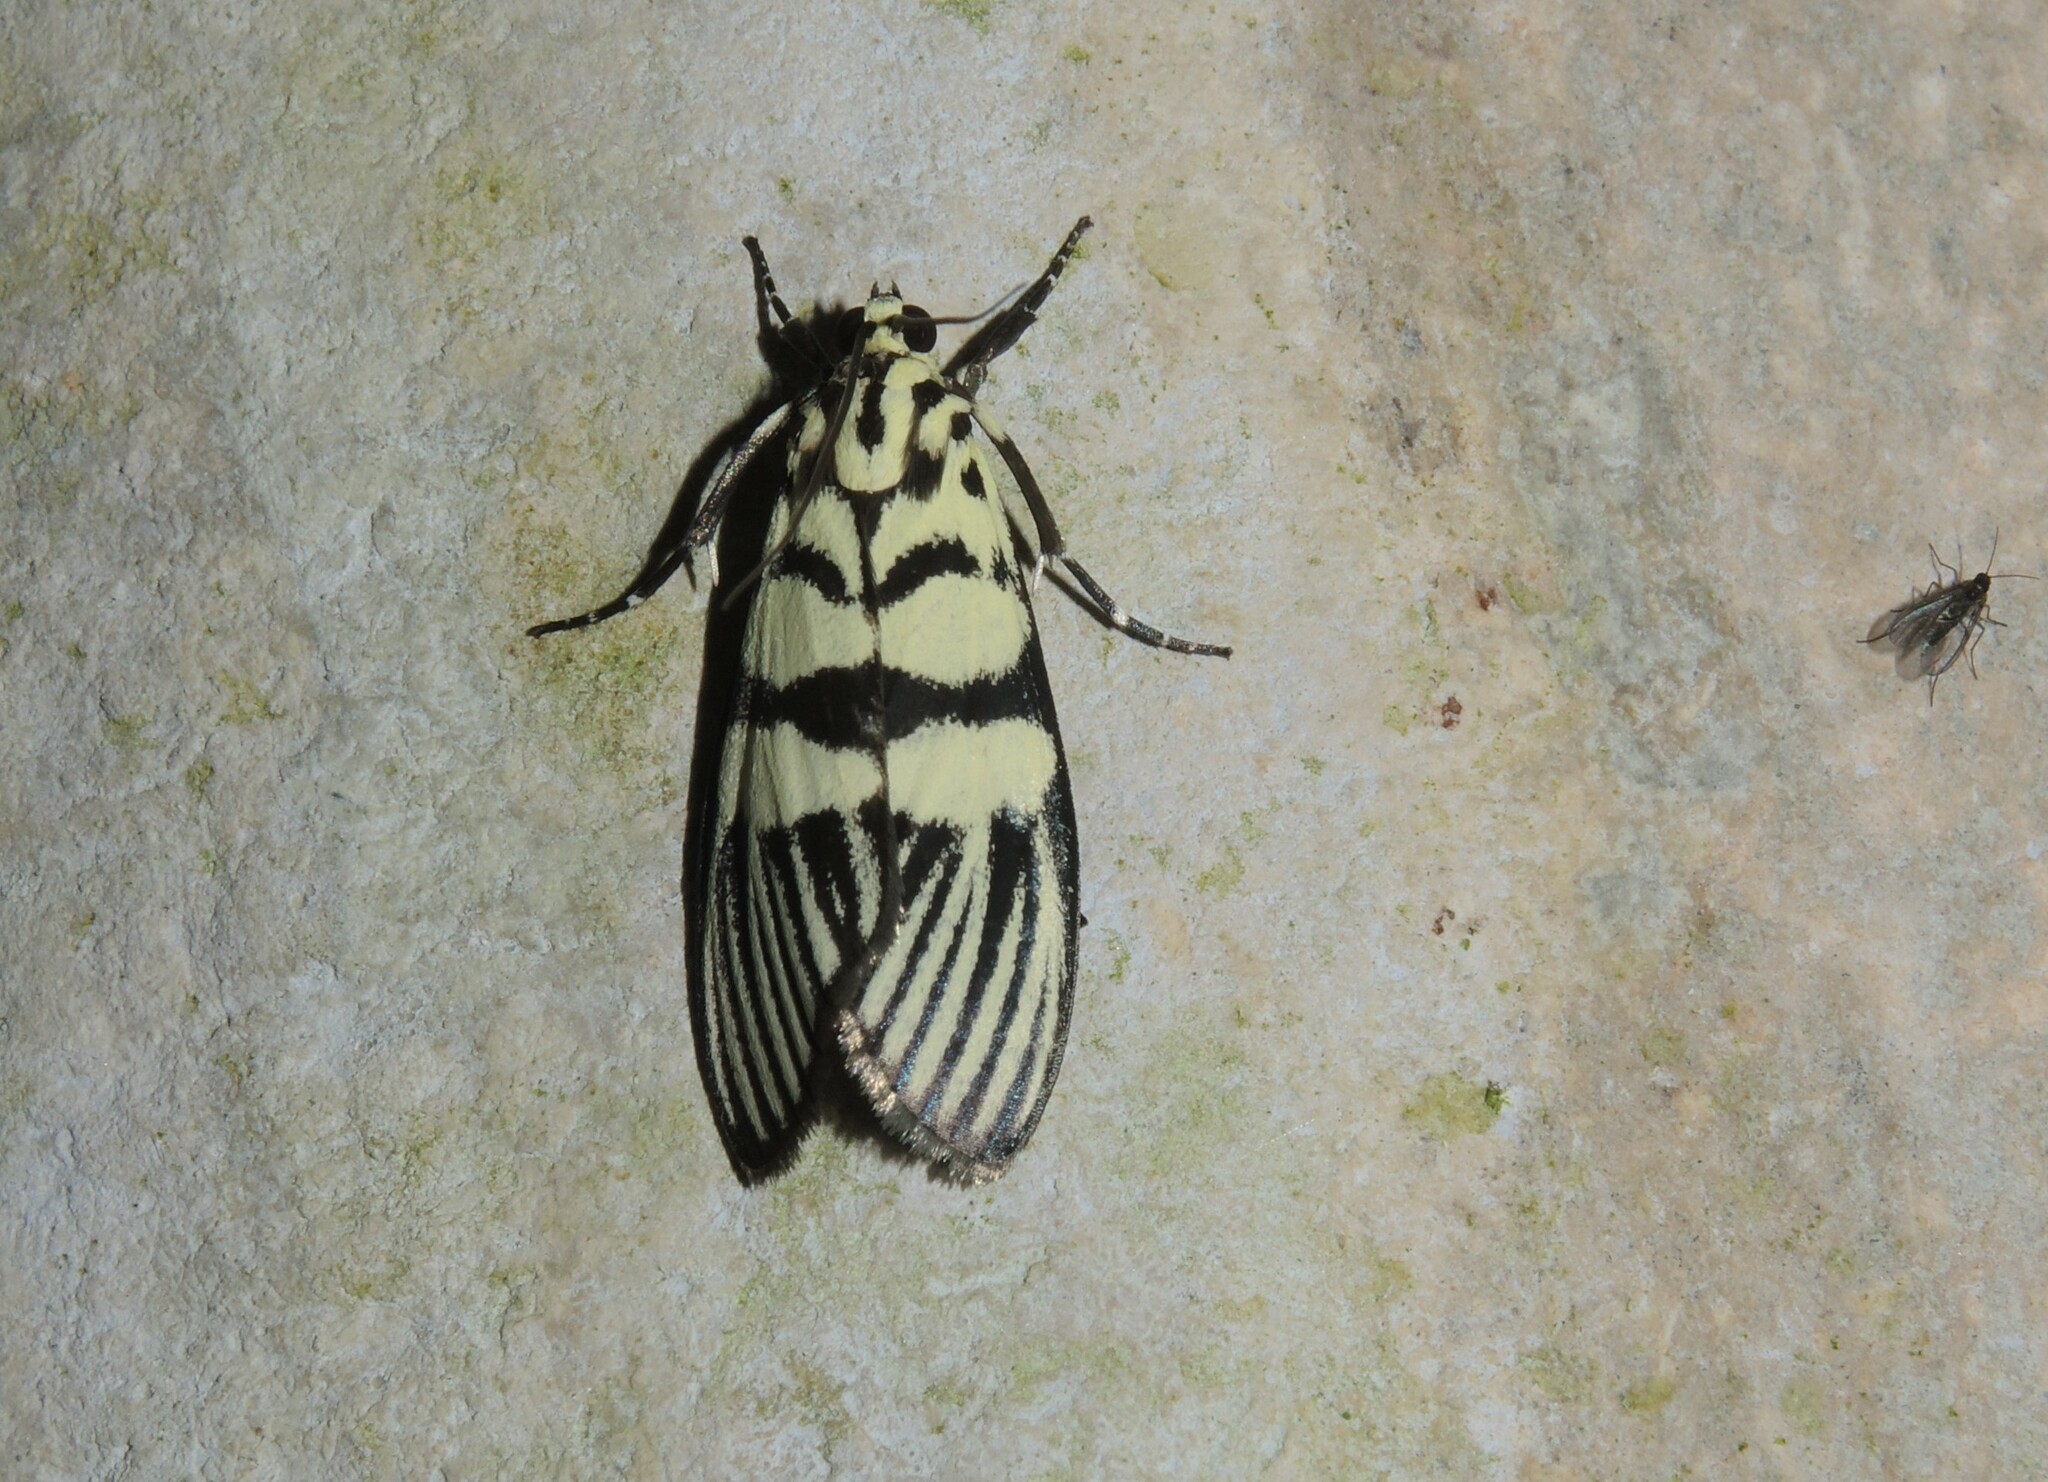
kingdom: Animalia
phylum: Arthropoda
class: Insecta
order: Lepidoptera
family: Crambidae
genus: Heortia
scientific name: Heortia vitessoides
